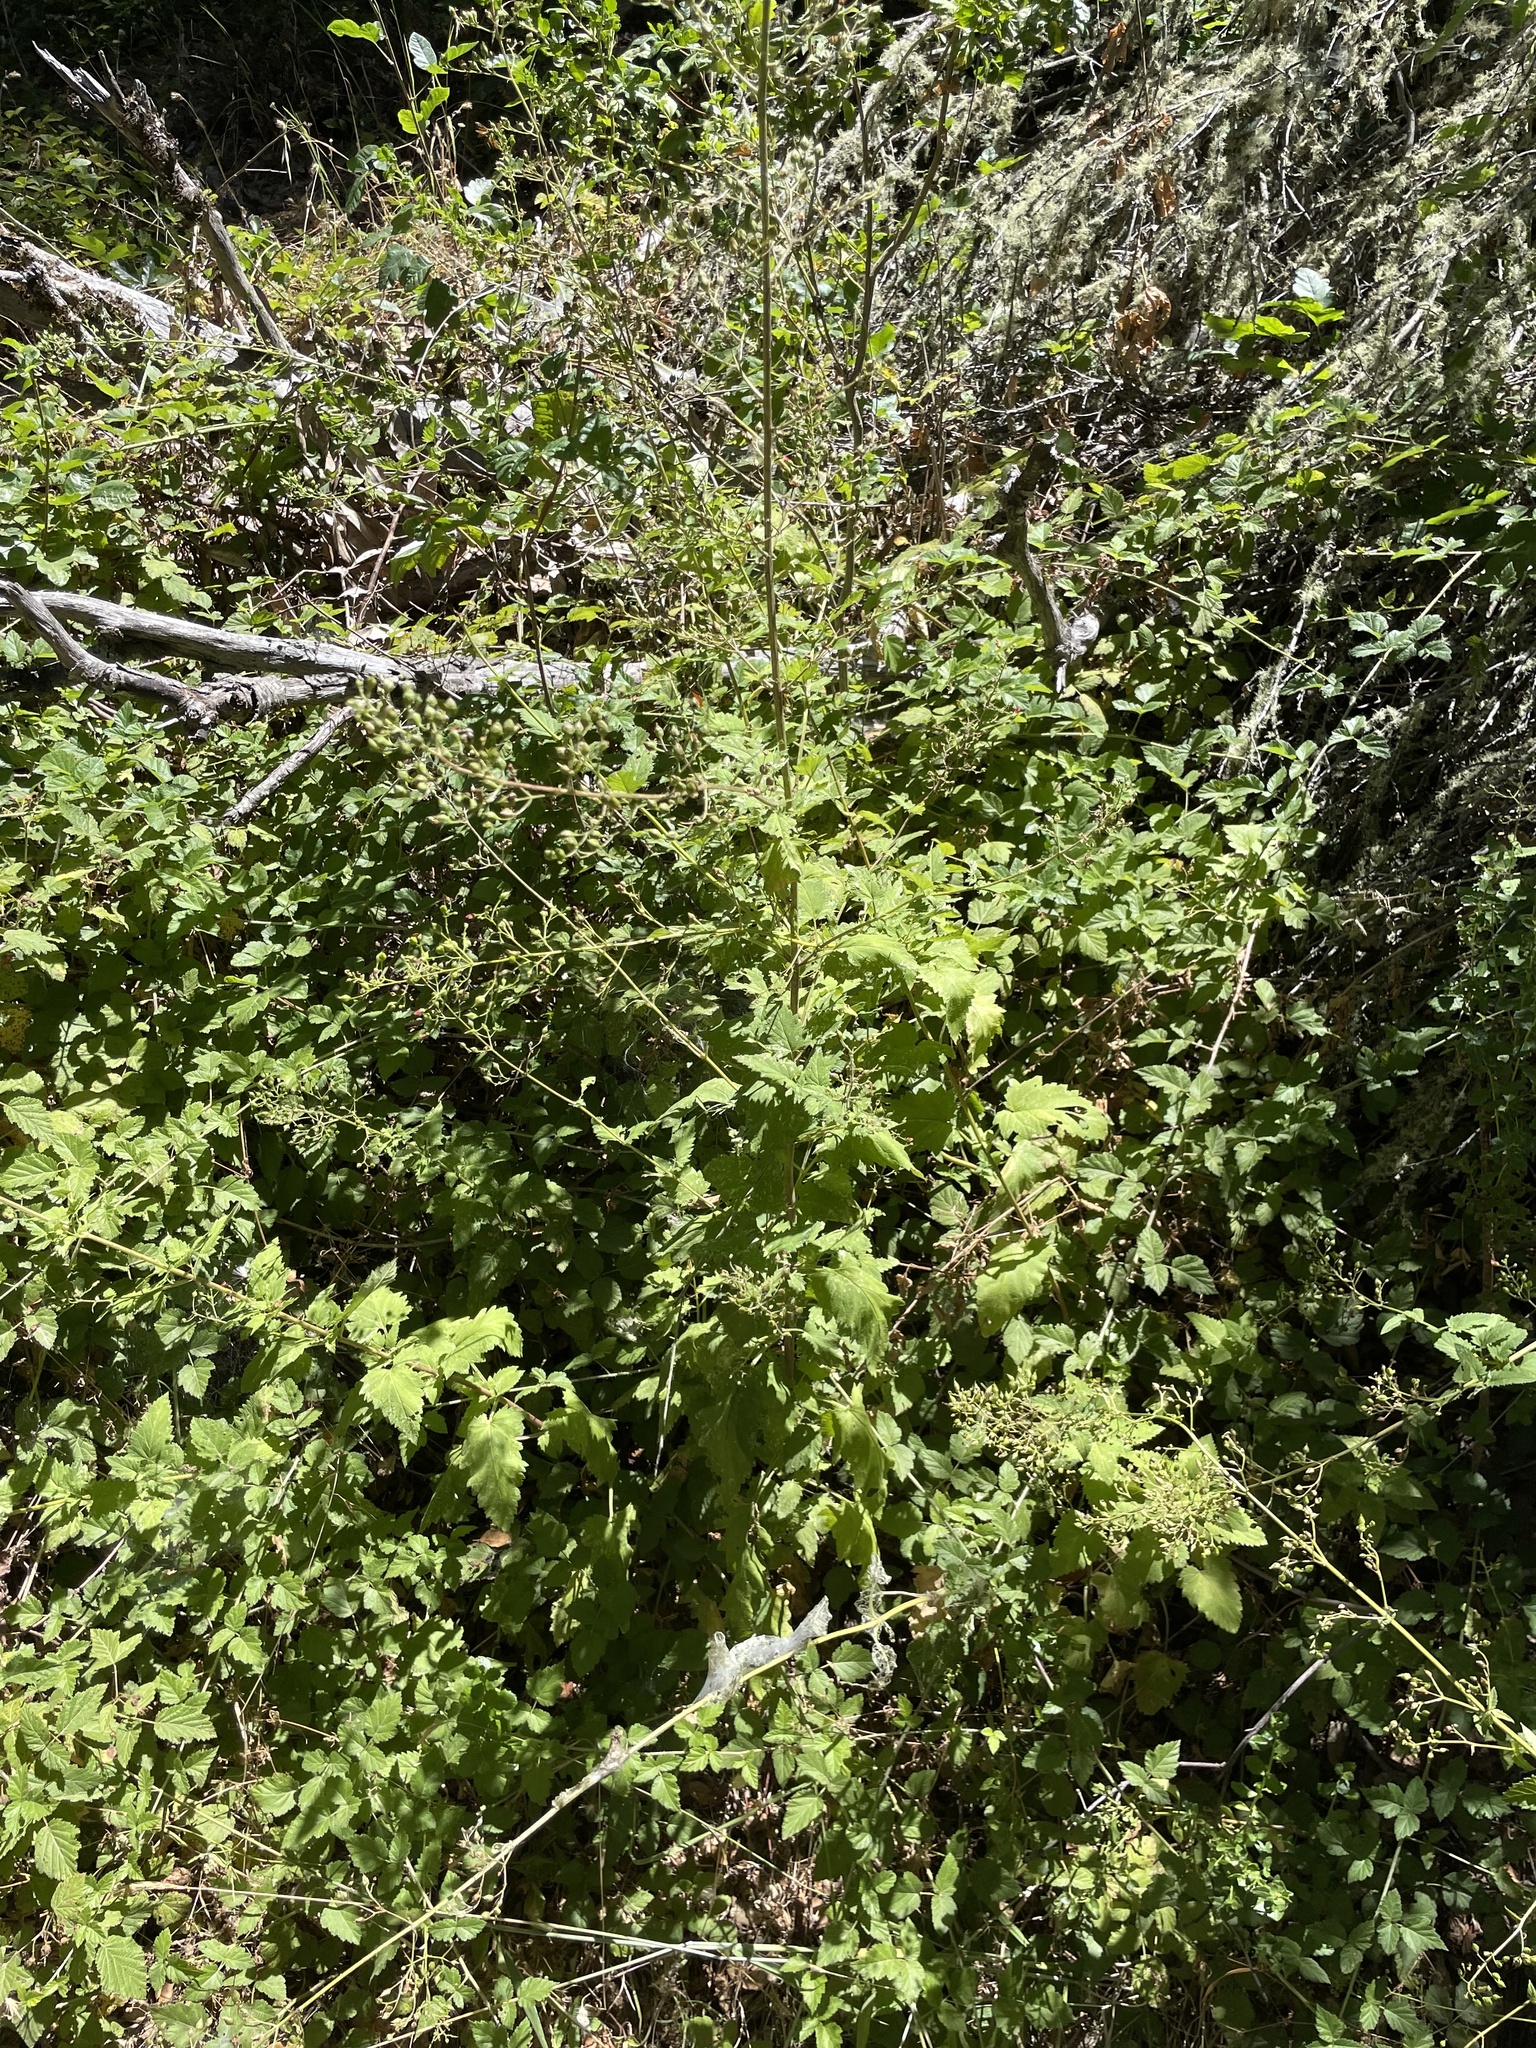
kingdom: Plantae
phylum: Tracheophyta
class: Magnoliopsida
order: Lamiales
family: Scrophulariaceae
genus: Scrophularia
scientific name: Scrophularia californica
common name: California figwort
